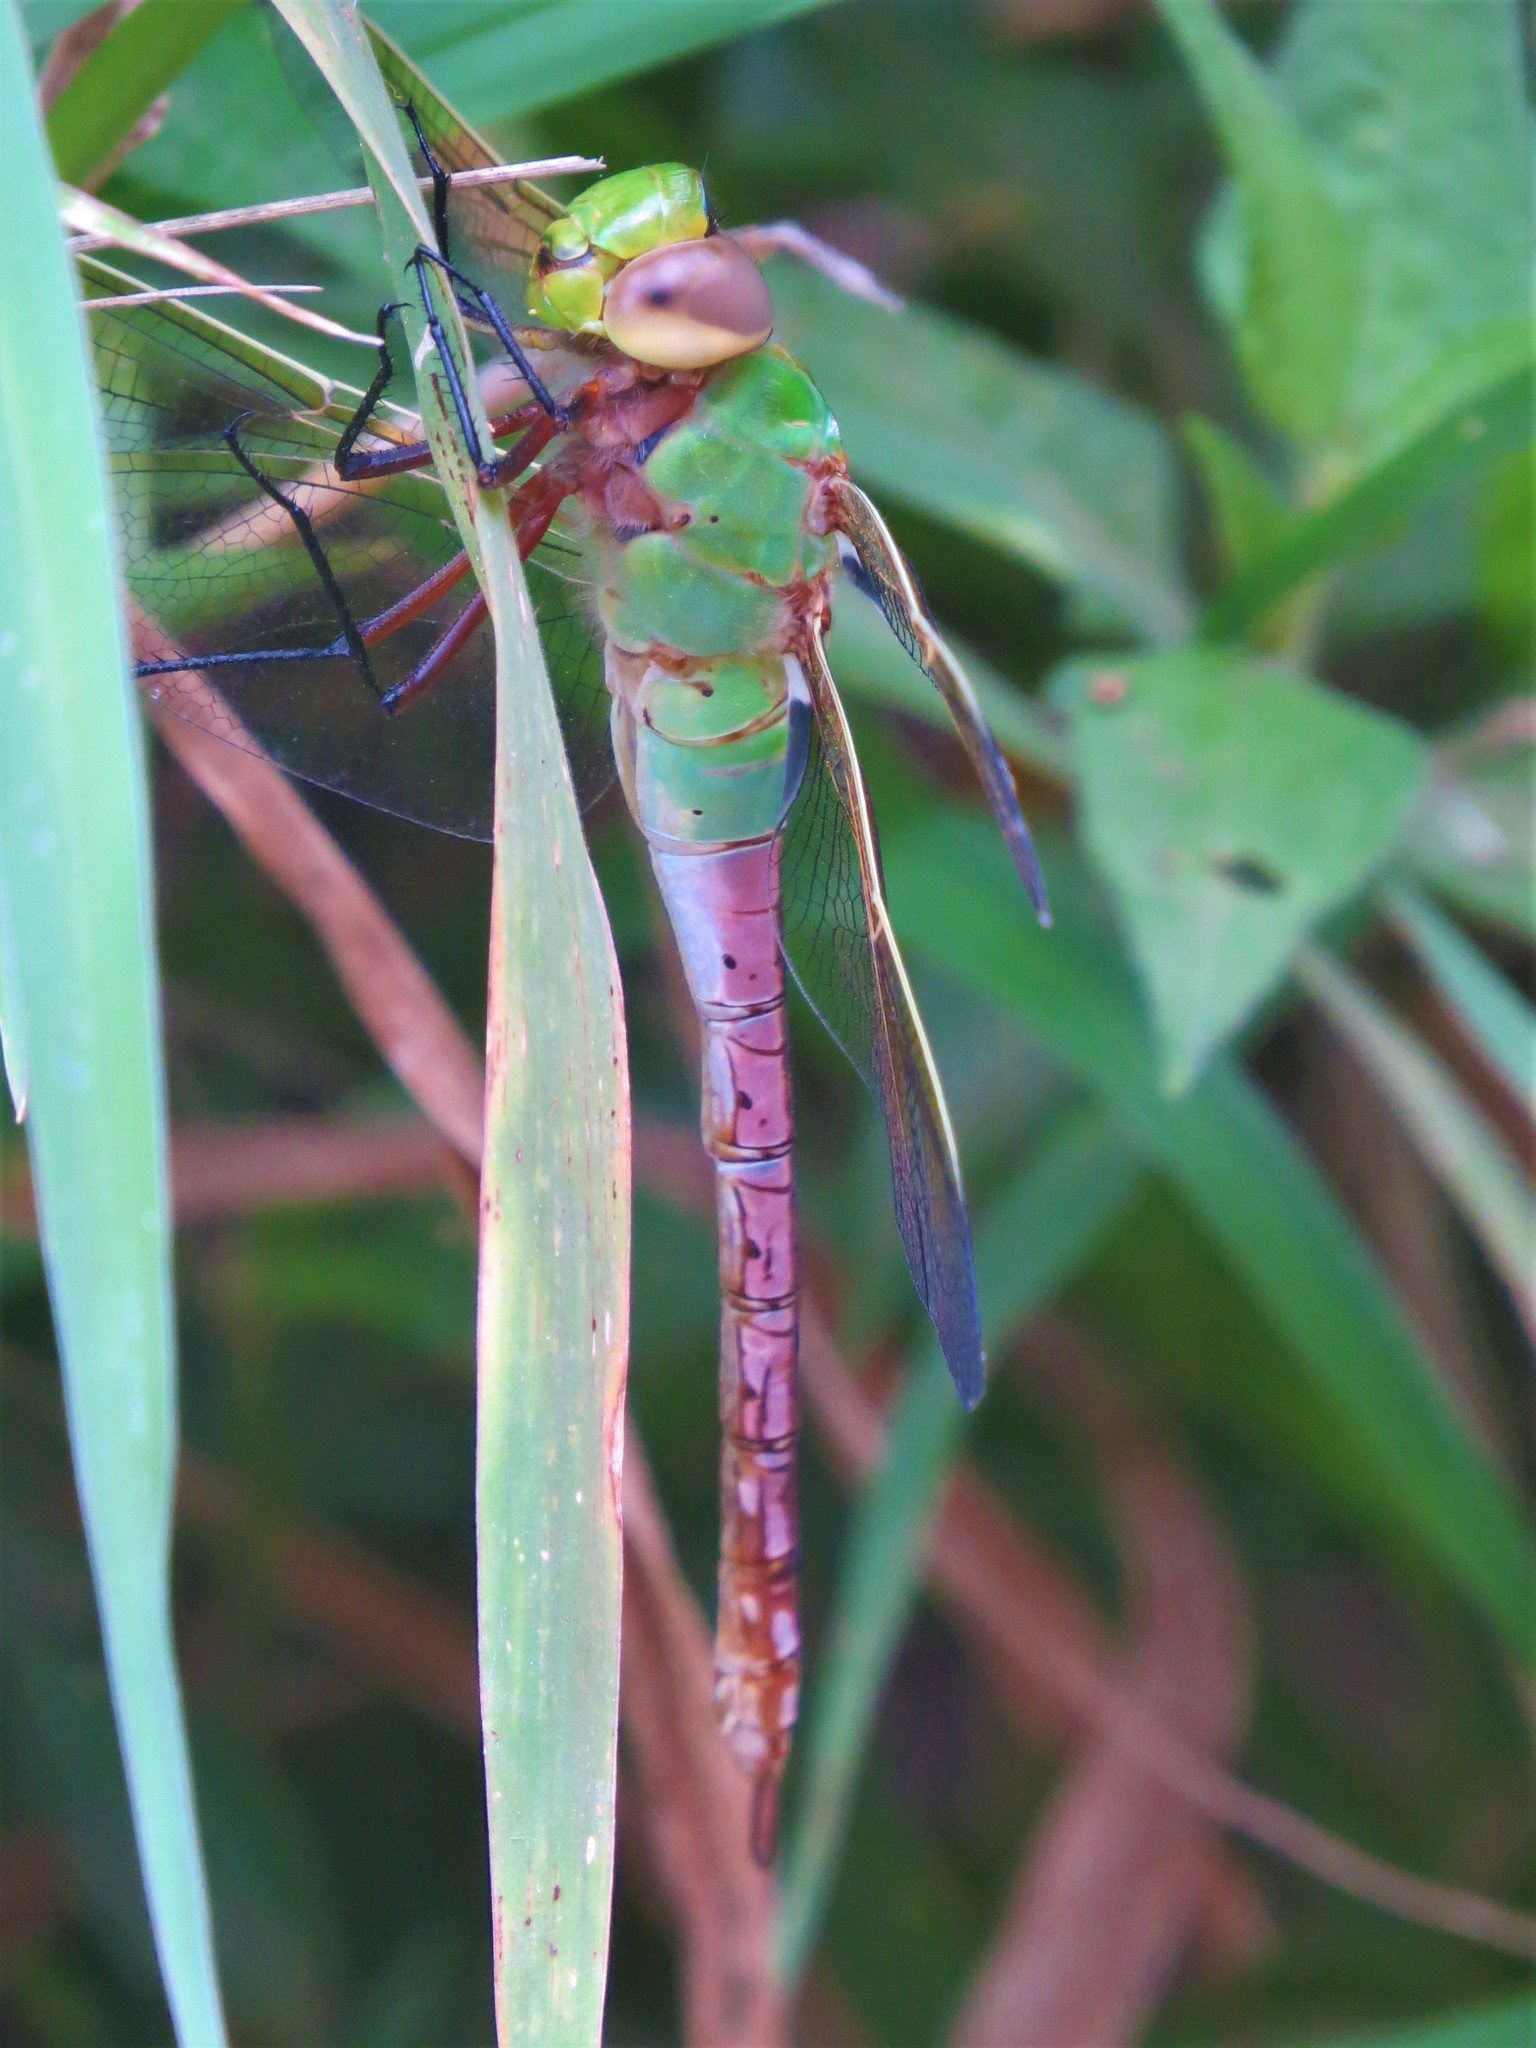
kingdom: Animalia
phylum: Arthropoda
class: Insecta
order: Odonata
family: Aeshnidae
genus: Anax
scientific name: Anax junius
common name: Common green darner
